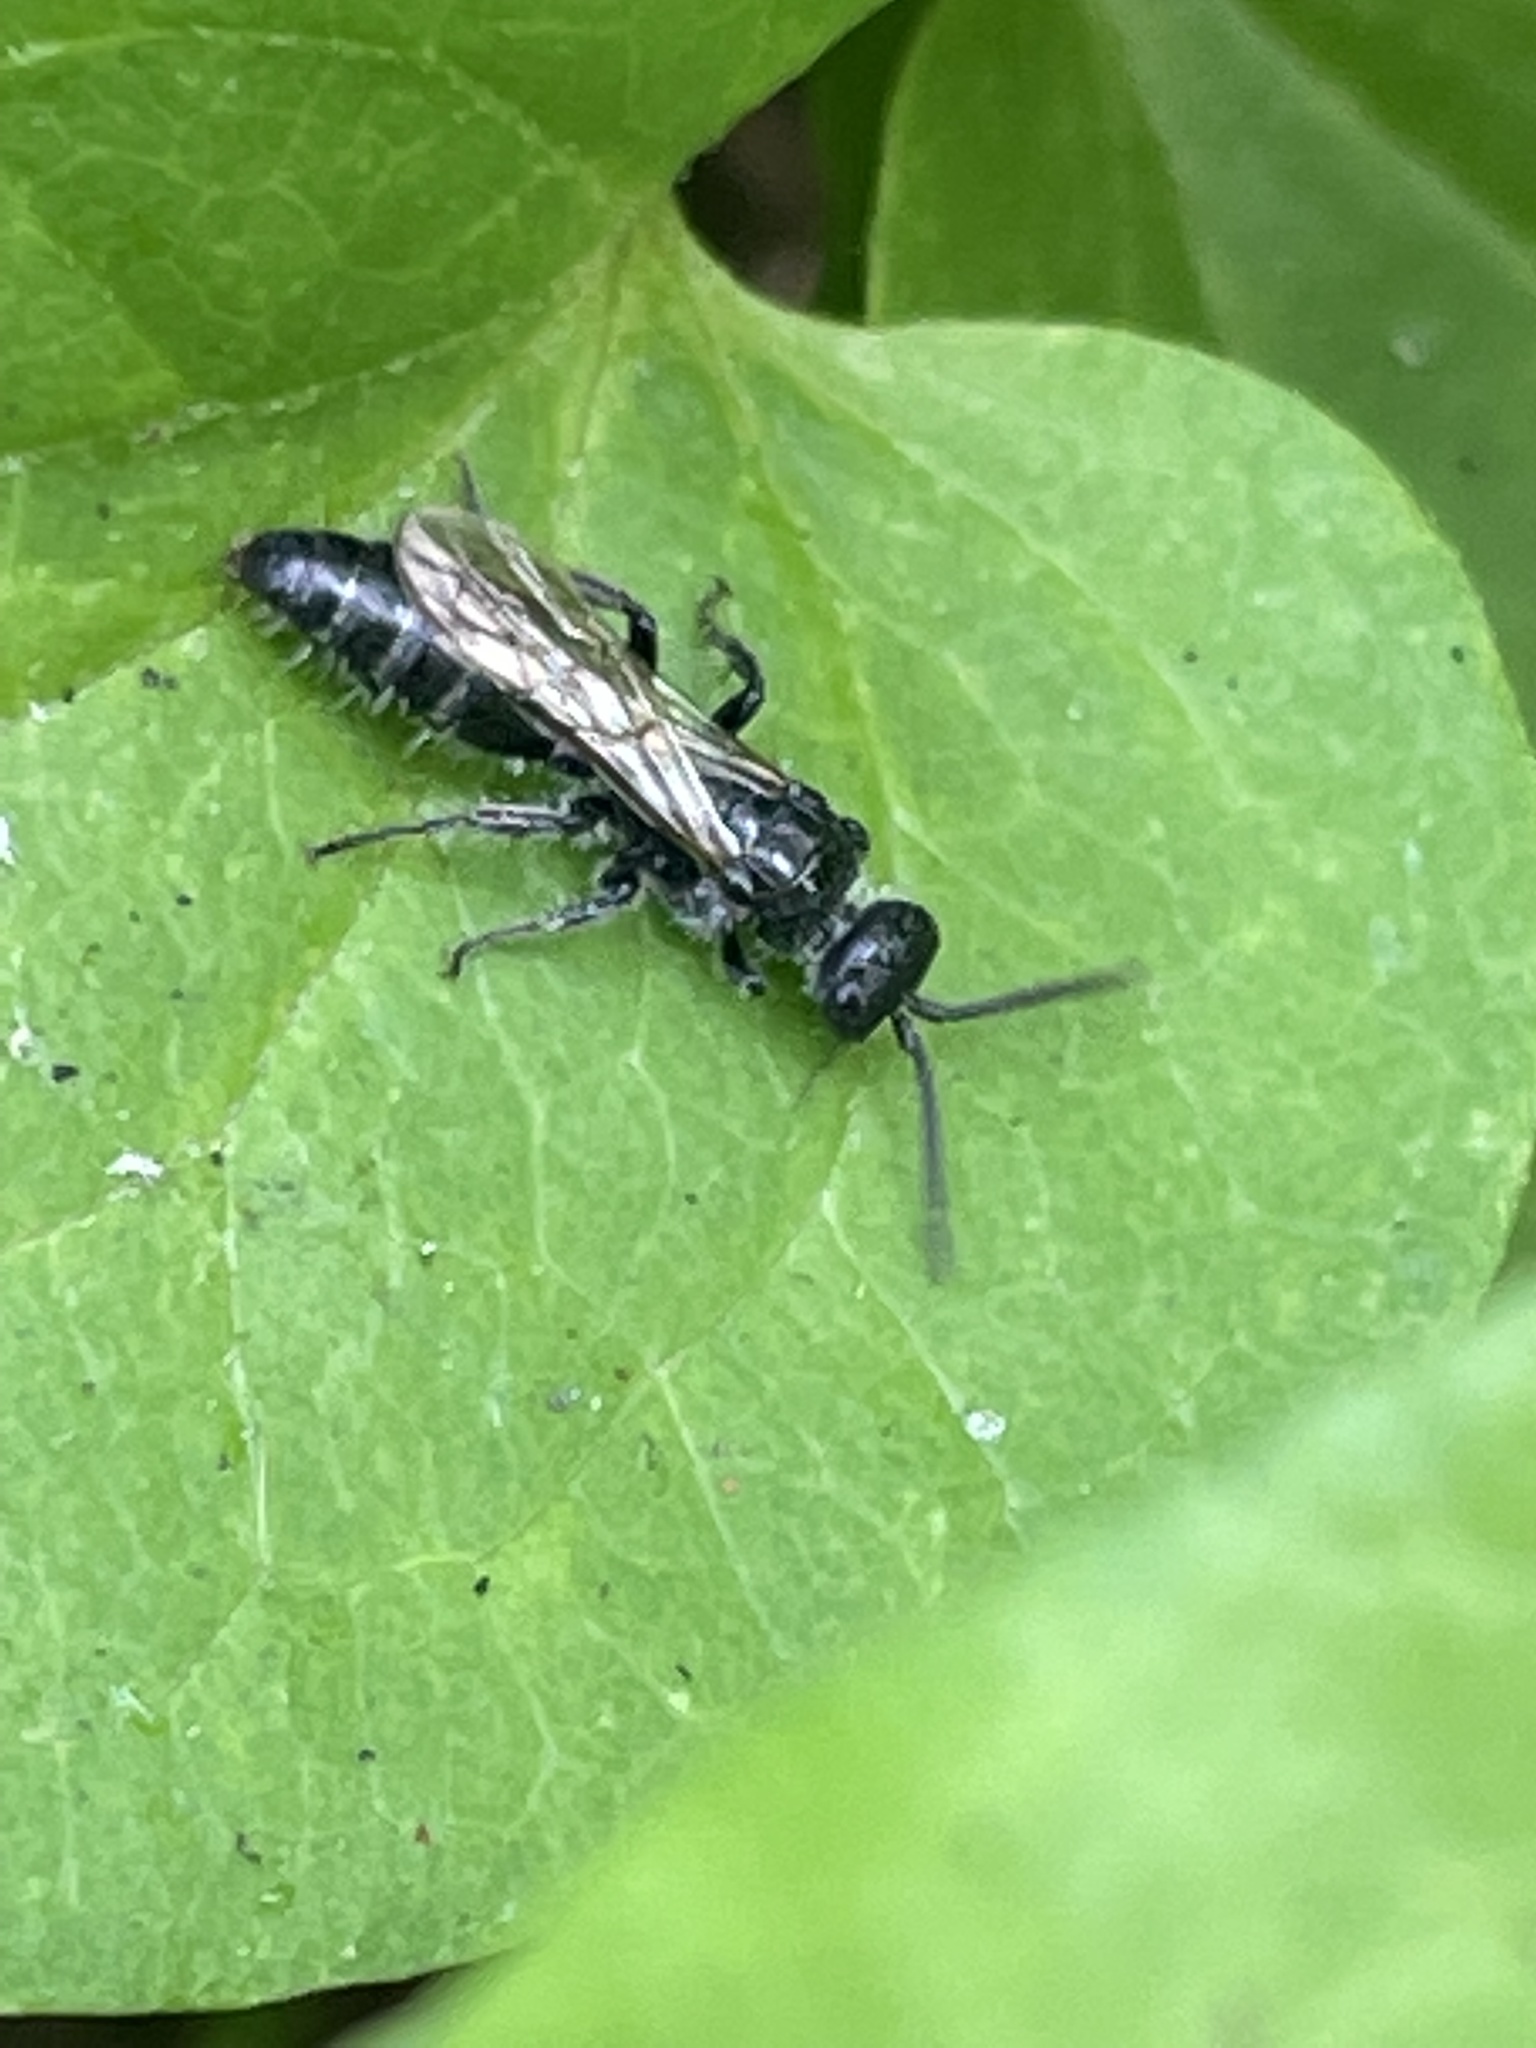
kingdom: Animalia
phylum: Arthropoda
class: Insecta
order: Hymenoptera
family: Tiphiidae
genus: Tiphia
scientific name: Tiphia
